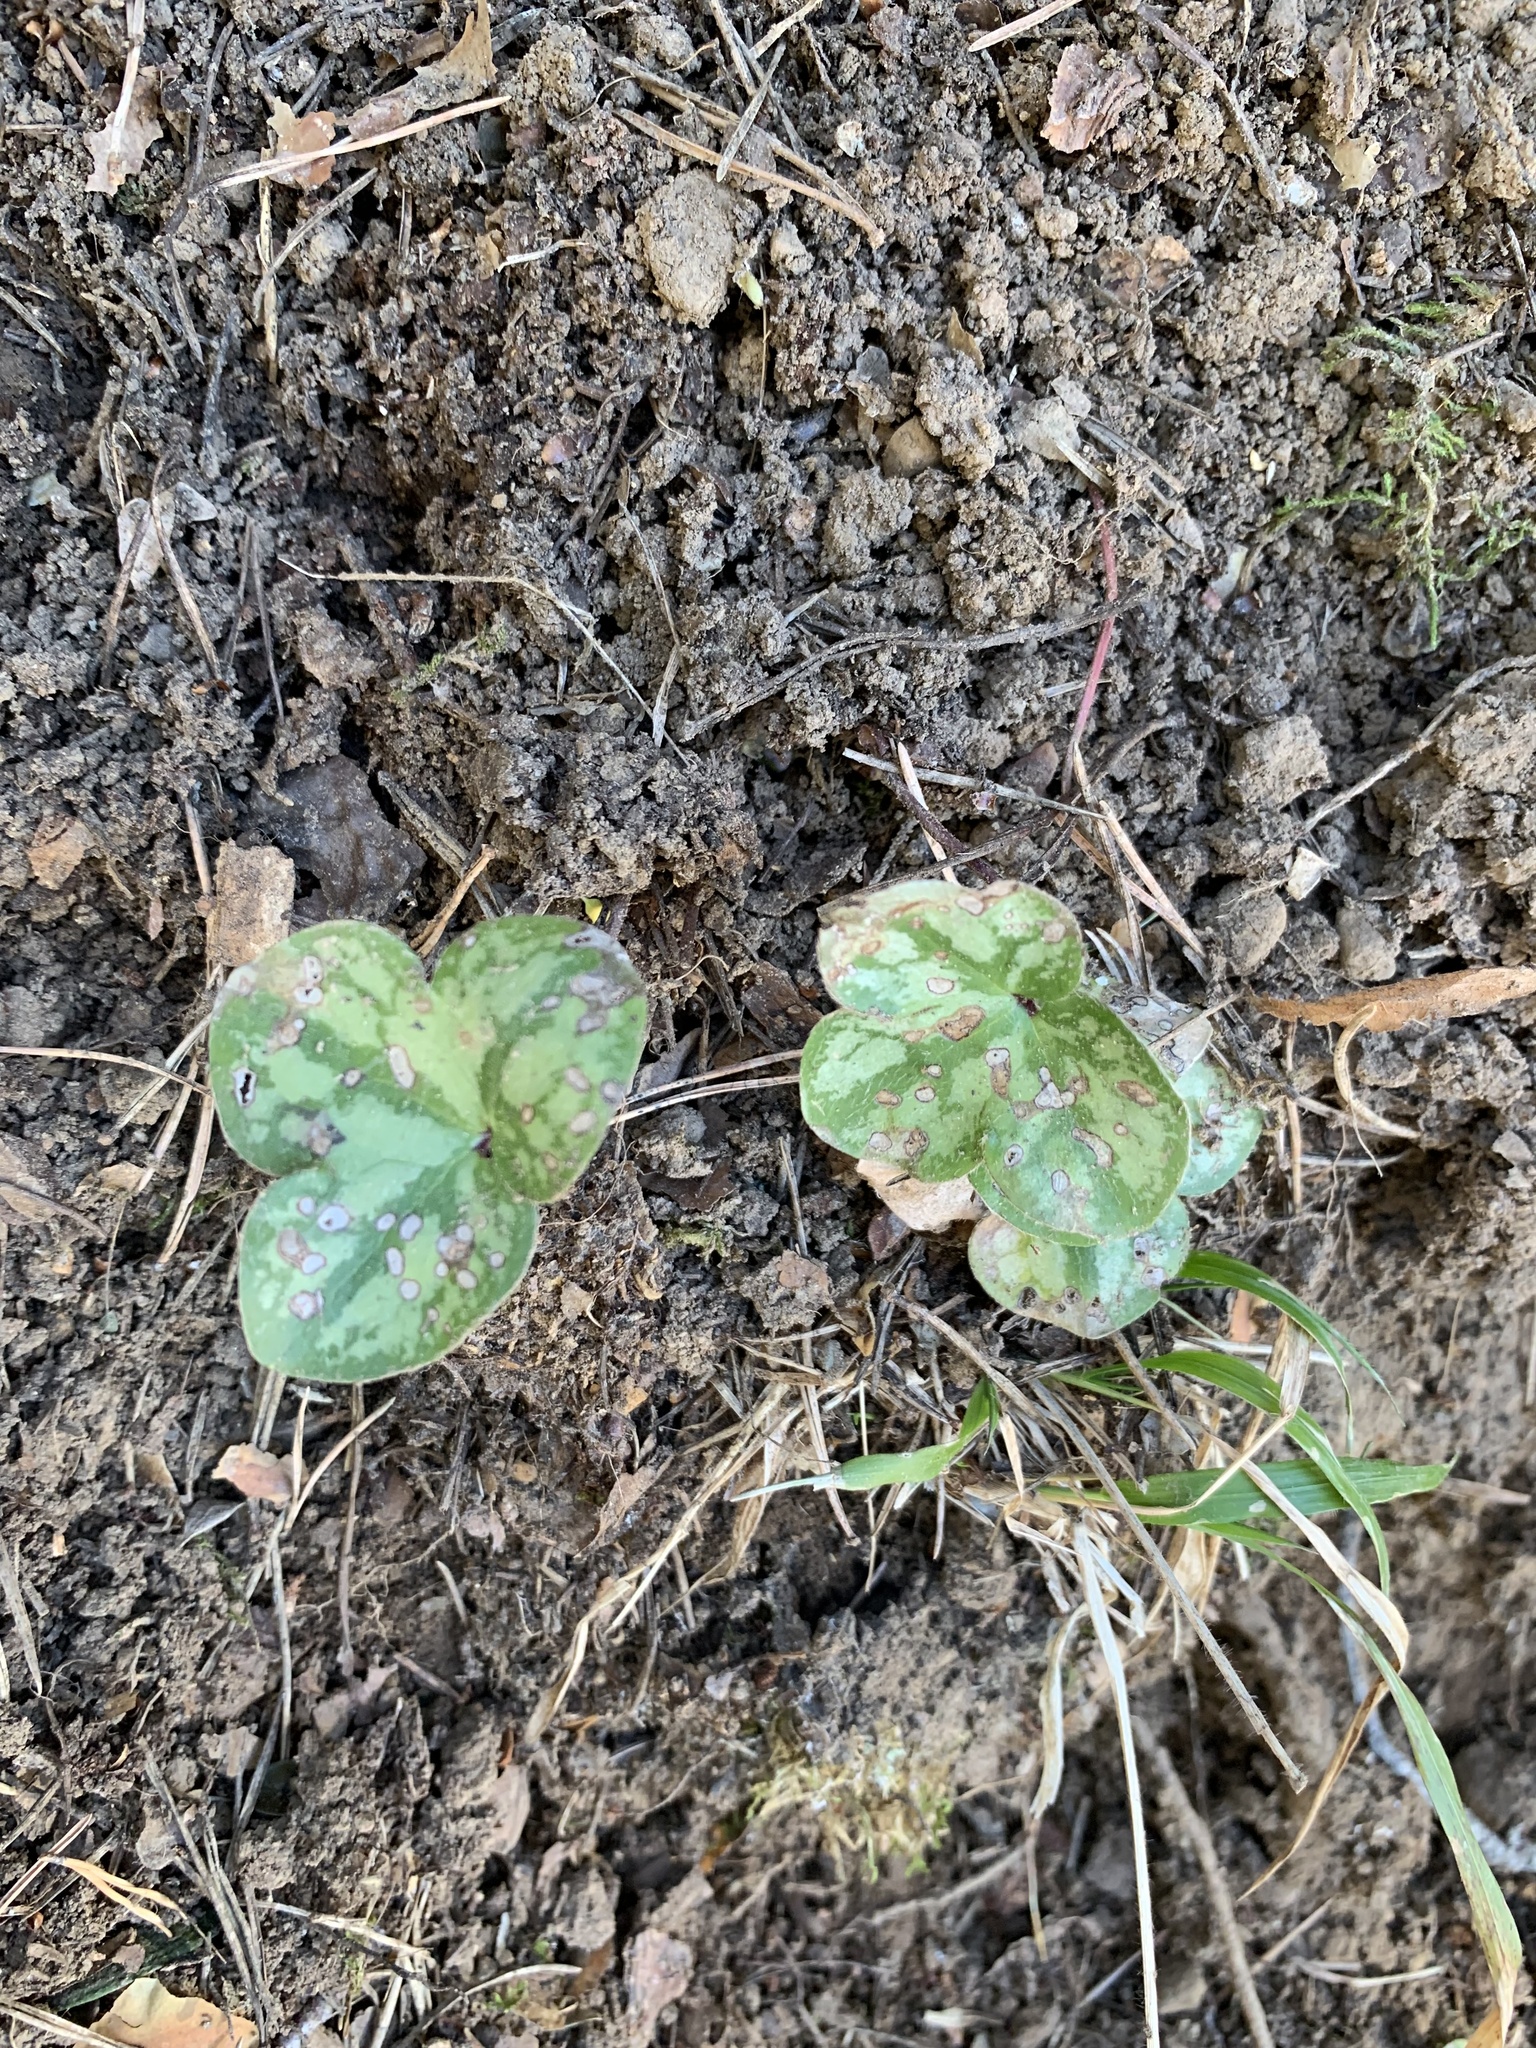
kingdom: Plantae
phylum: Tracheophyta
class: Magnoliopsida
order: Ranunculales
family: Ranunculaceae
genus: Hepatica
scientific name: Hepatica nobilis
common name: Liverleaf
